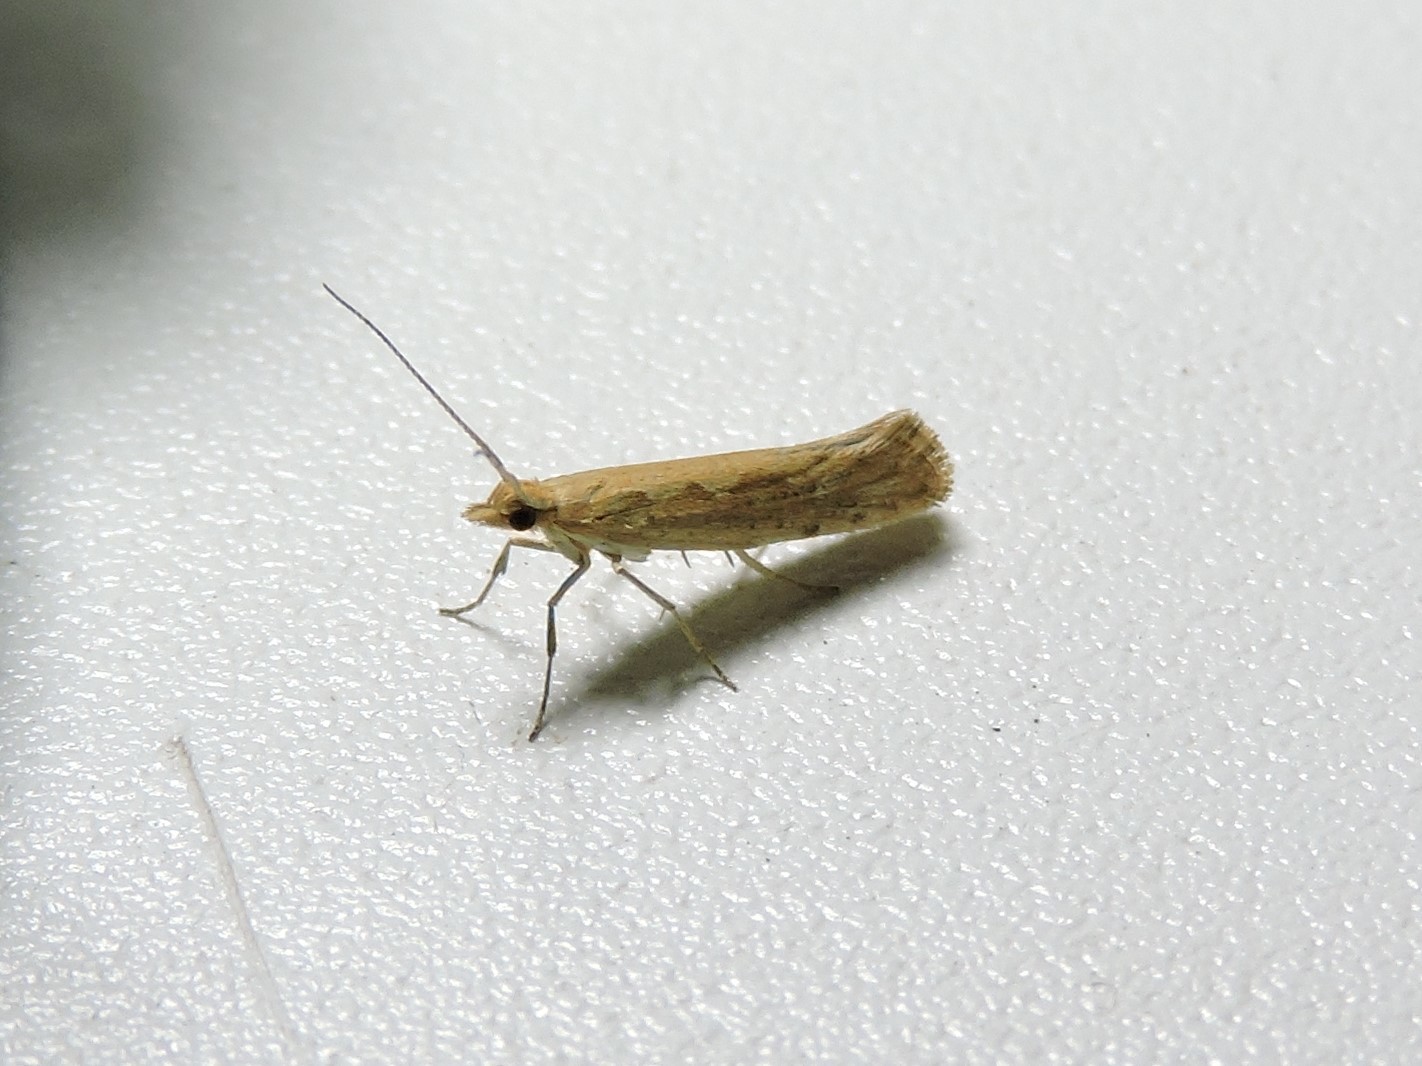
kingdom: Animalia
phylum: Arthropoda
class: Insecta
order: Lepidoptera
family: Plutellidae
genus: Plutella
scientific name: Plutella xylostella
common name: Diamond-back moth
